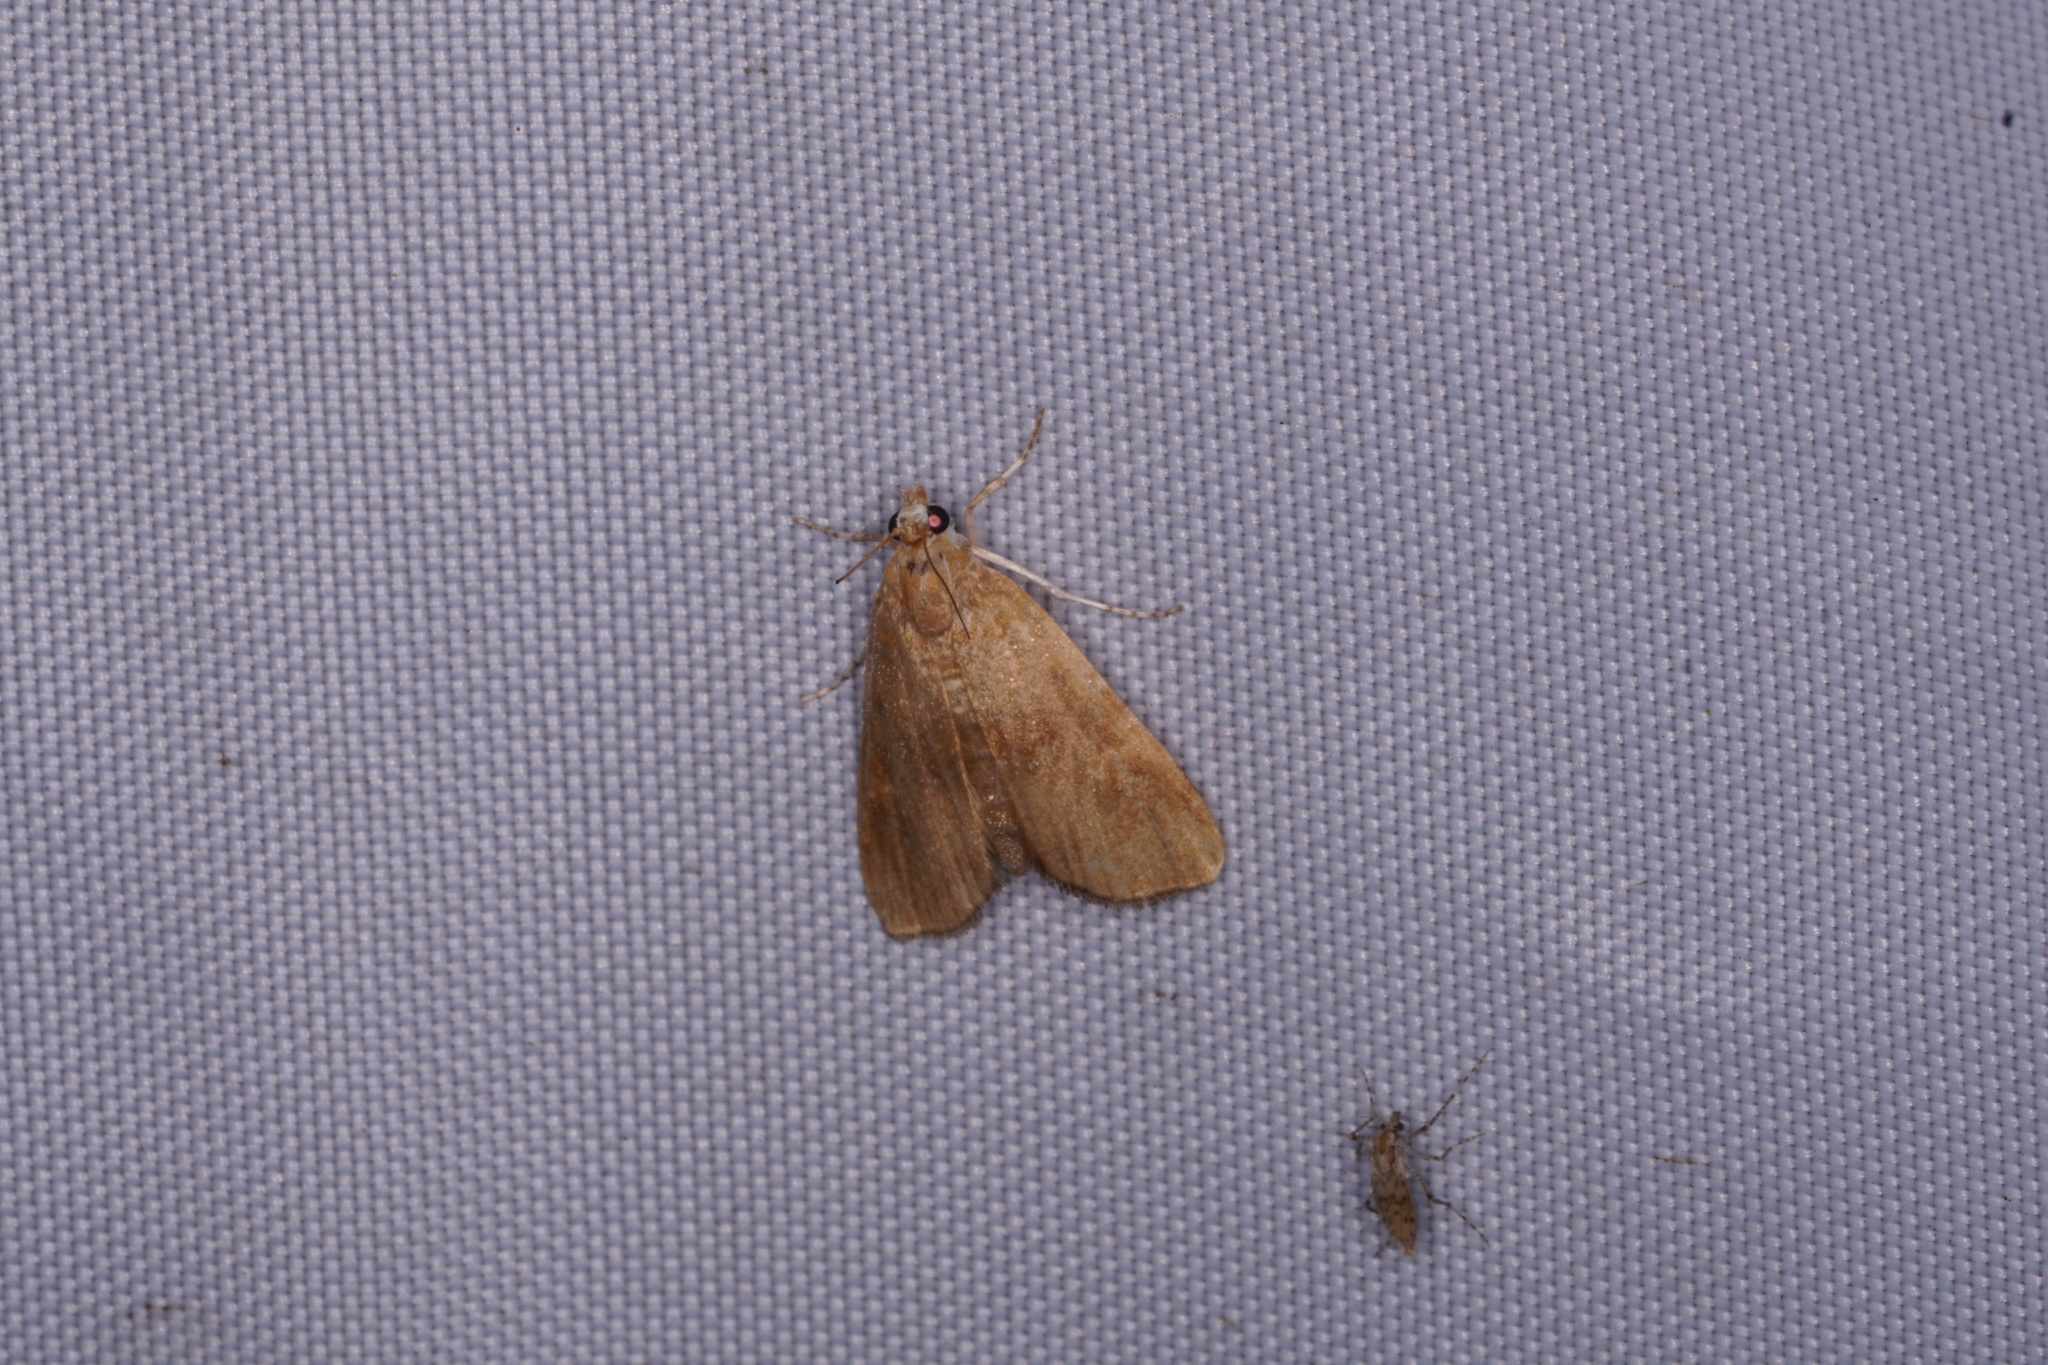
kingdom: Animalia
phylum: Arthropoda
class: Insecta
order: Lepidoptera
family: Crambidae
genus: Elophila
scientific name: Elophila gyralis
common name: Waterlily borer moth
